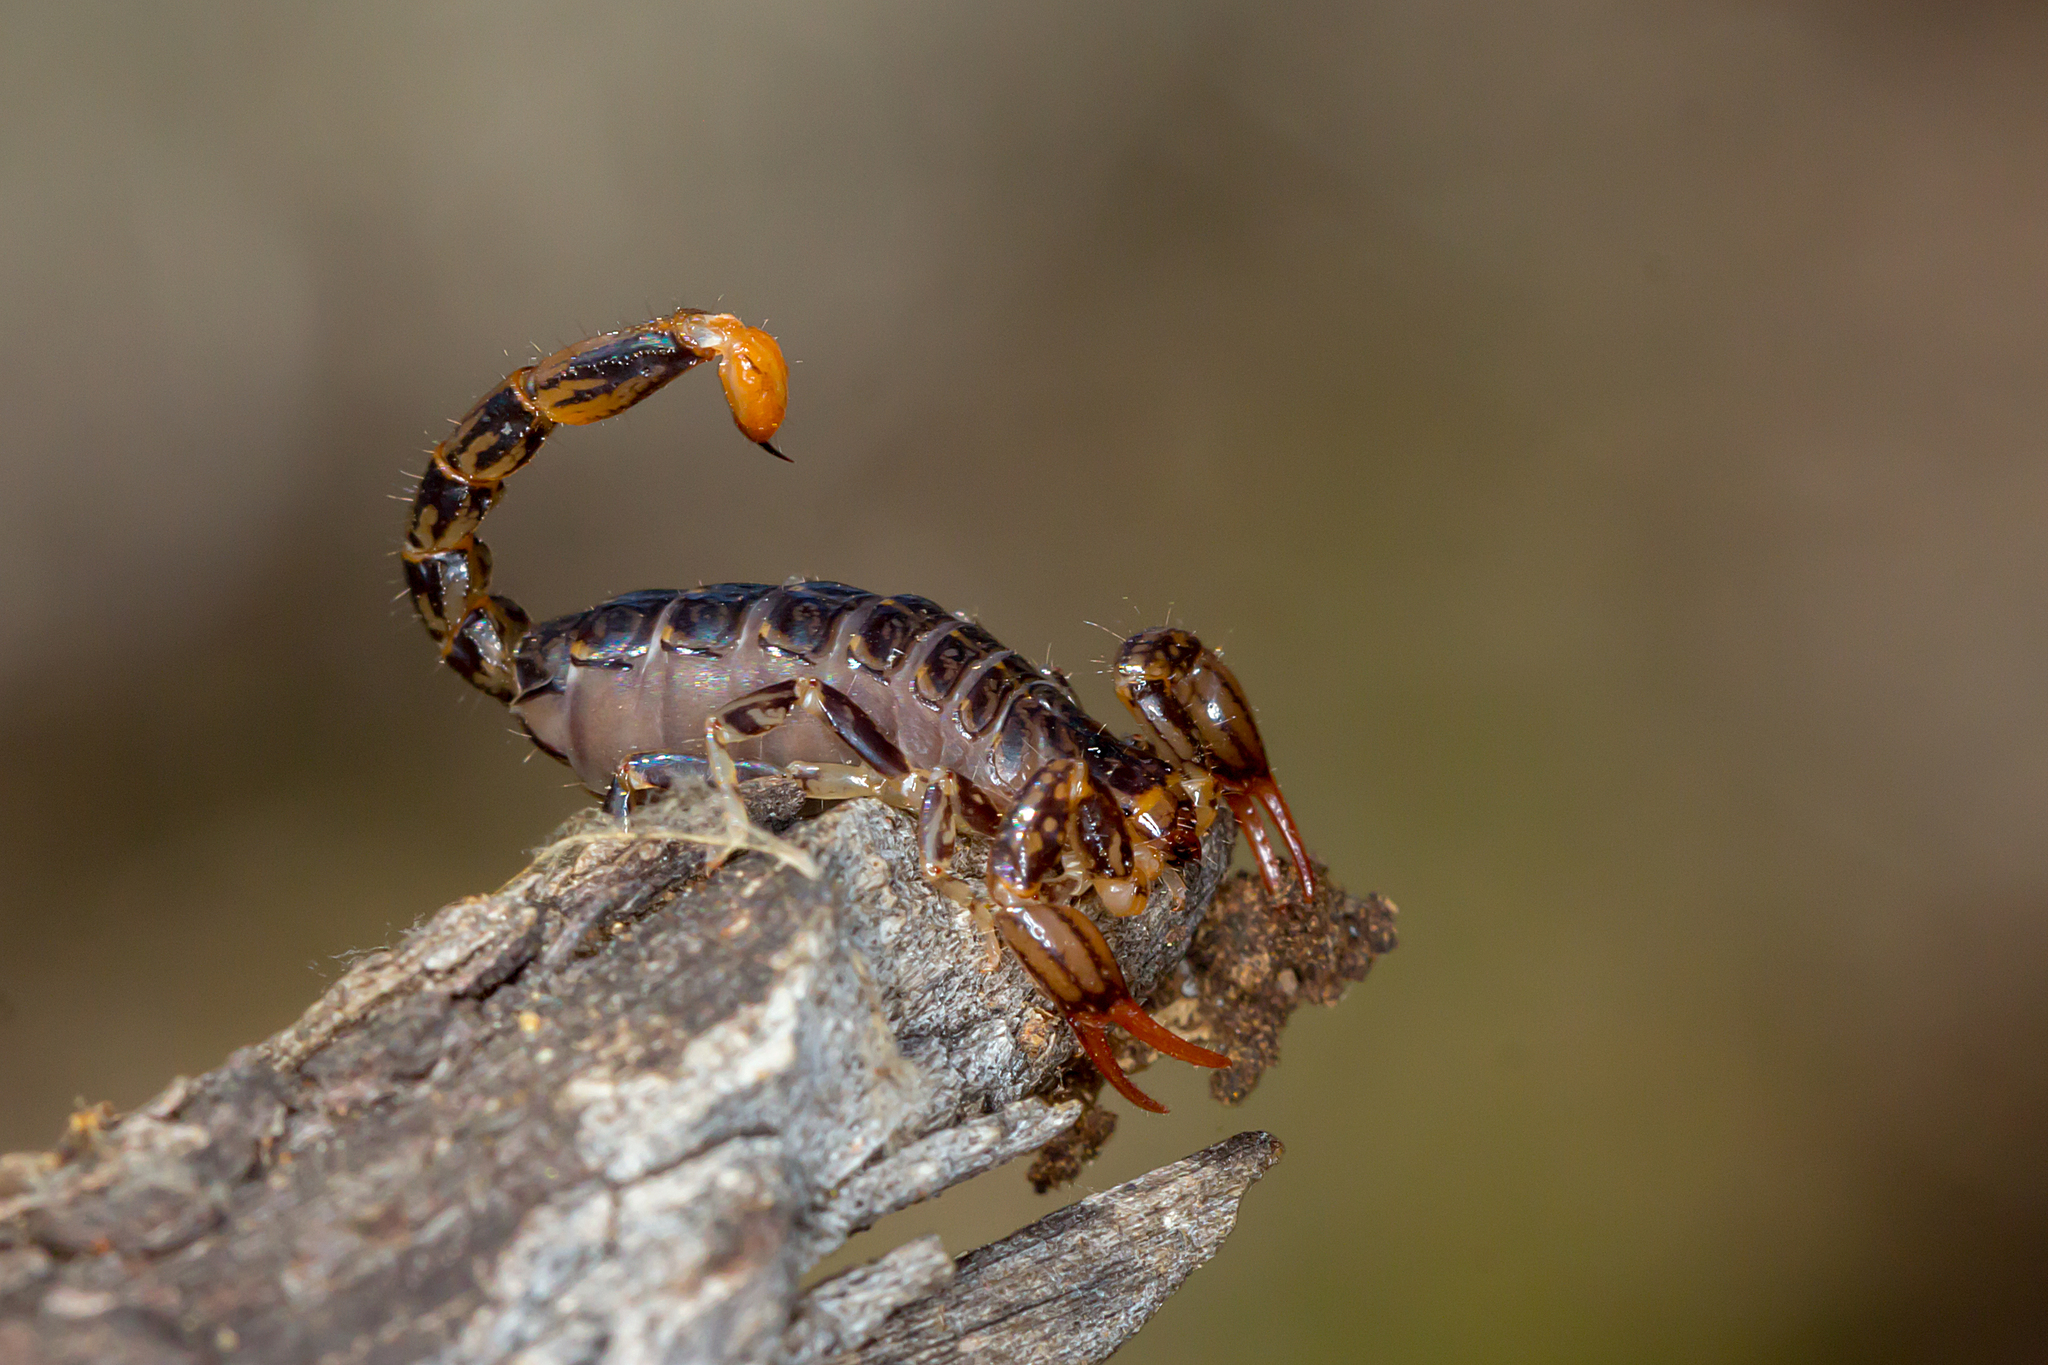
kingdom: Animalia
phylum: Arthropoda
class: Arachnida
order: Scorpiones
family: Bothriuridae
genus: Cercophonius
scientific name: Cercophonius squama
